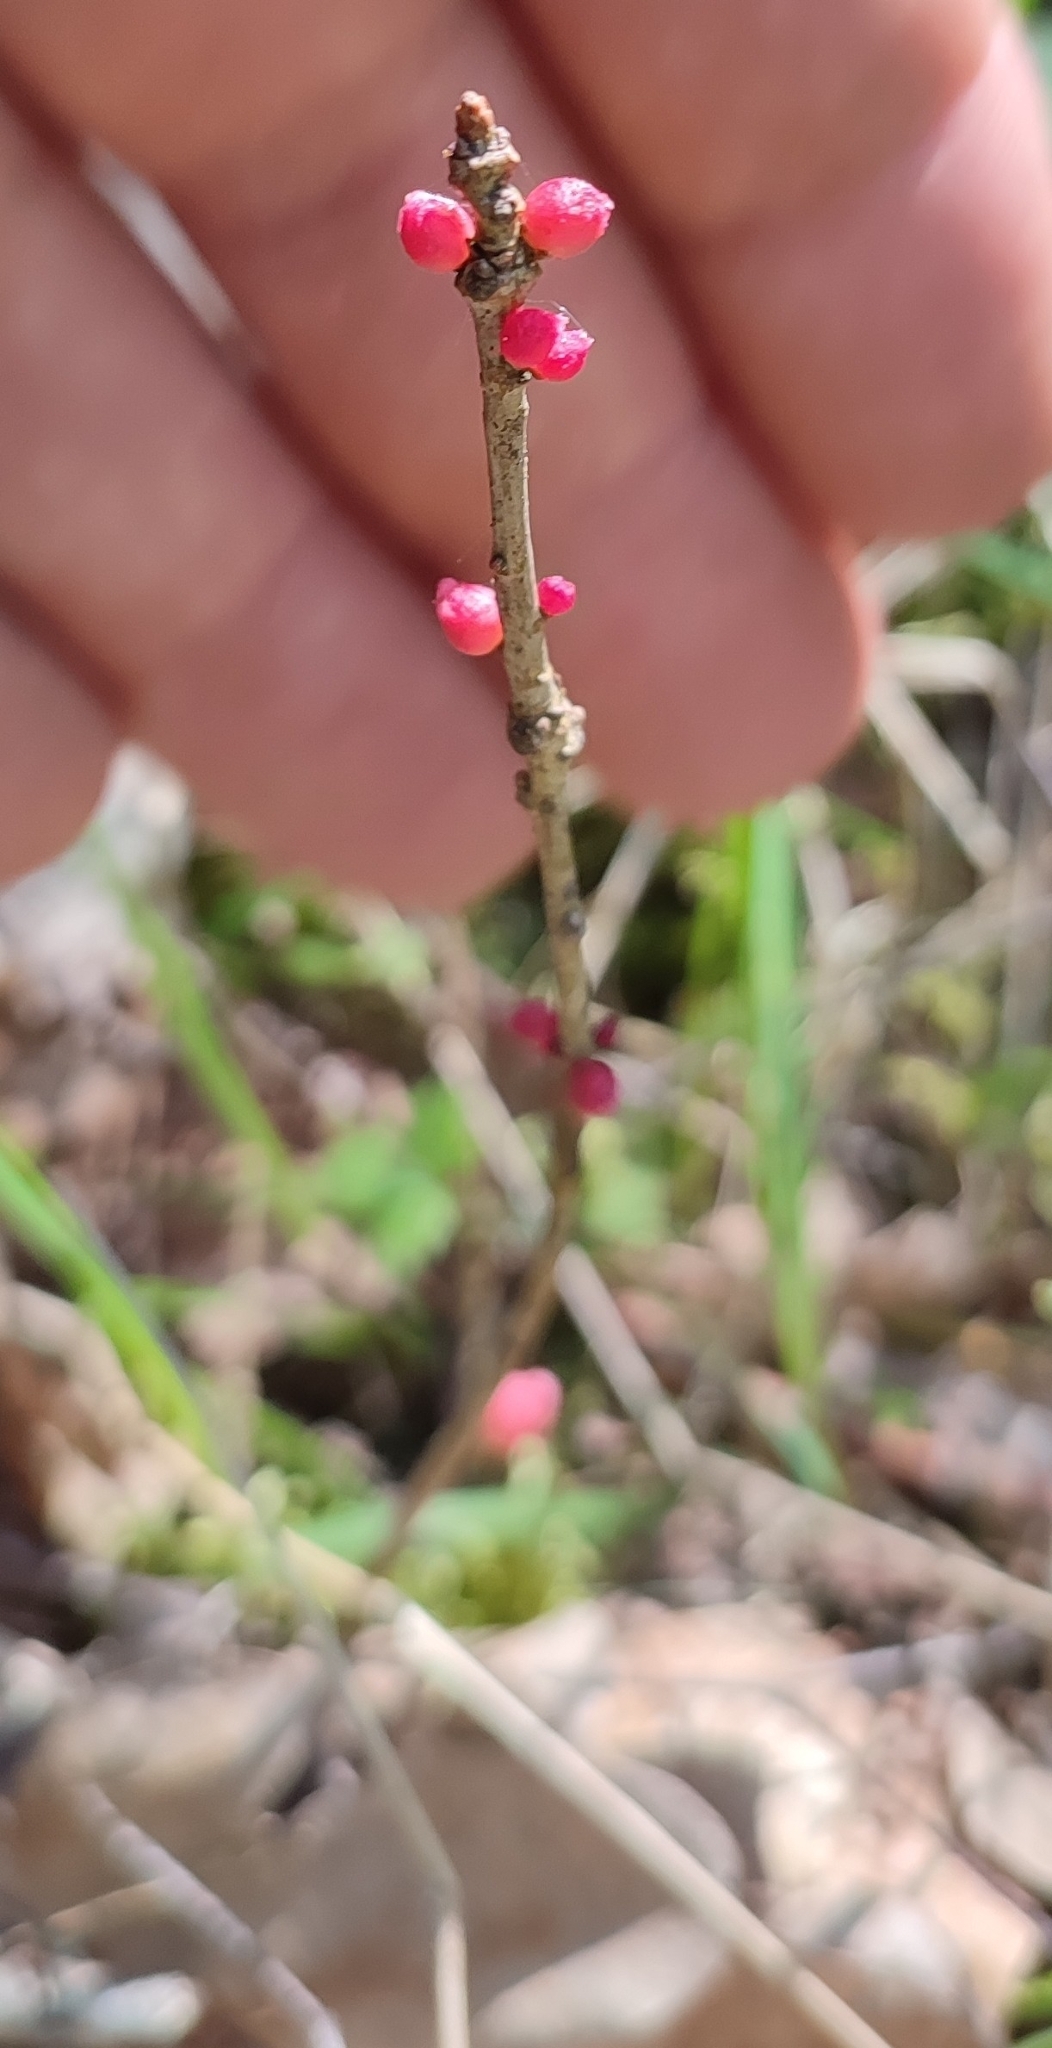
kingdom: Plantae
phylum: Tracheophyta
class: Magnoliopsida
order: Malvales
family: Thymelaeaceae
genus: Daphne
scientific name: Daphne mezereum
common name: Mezereon
